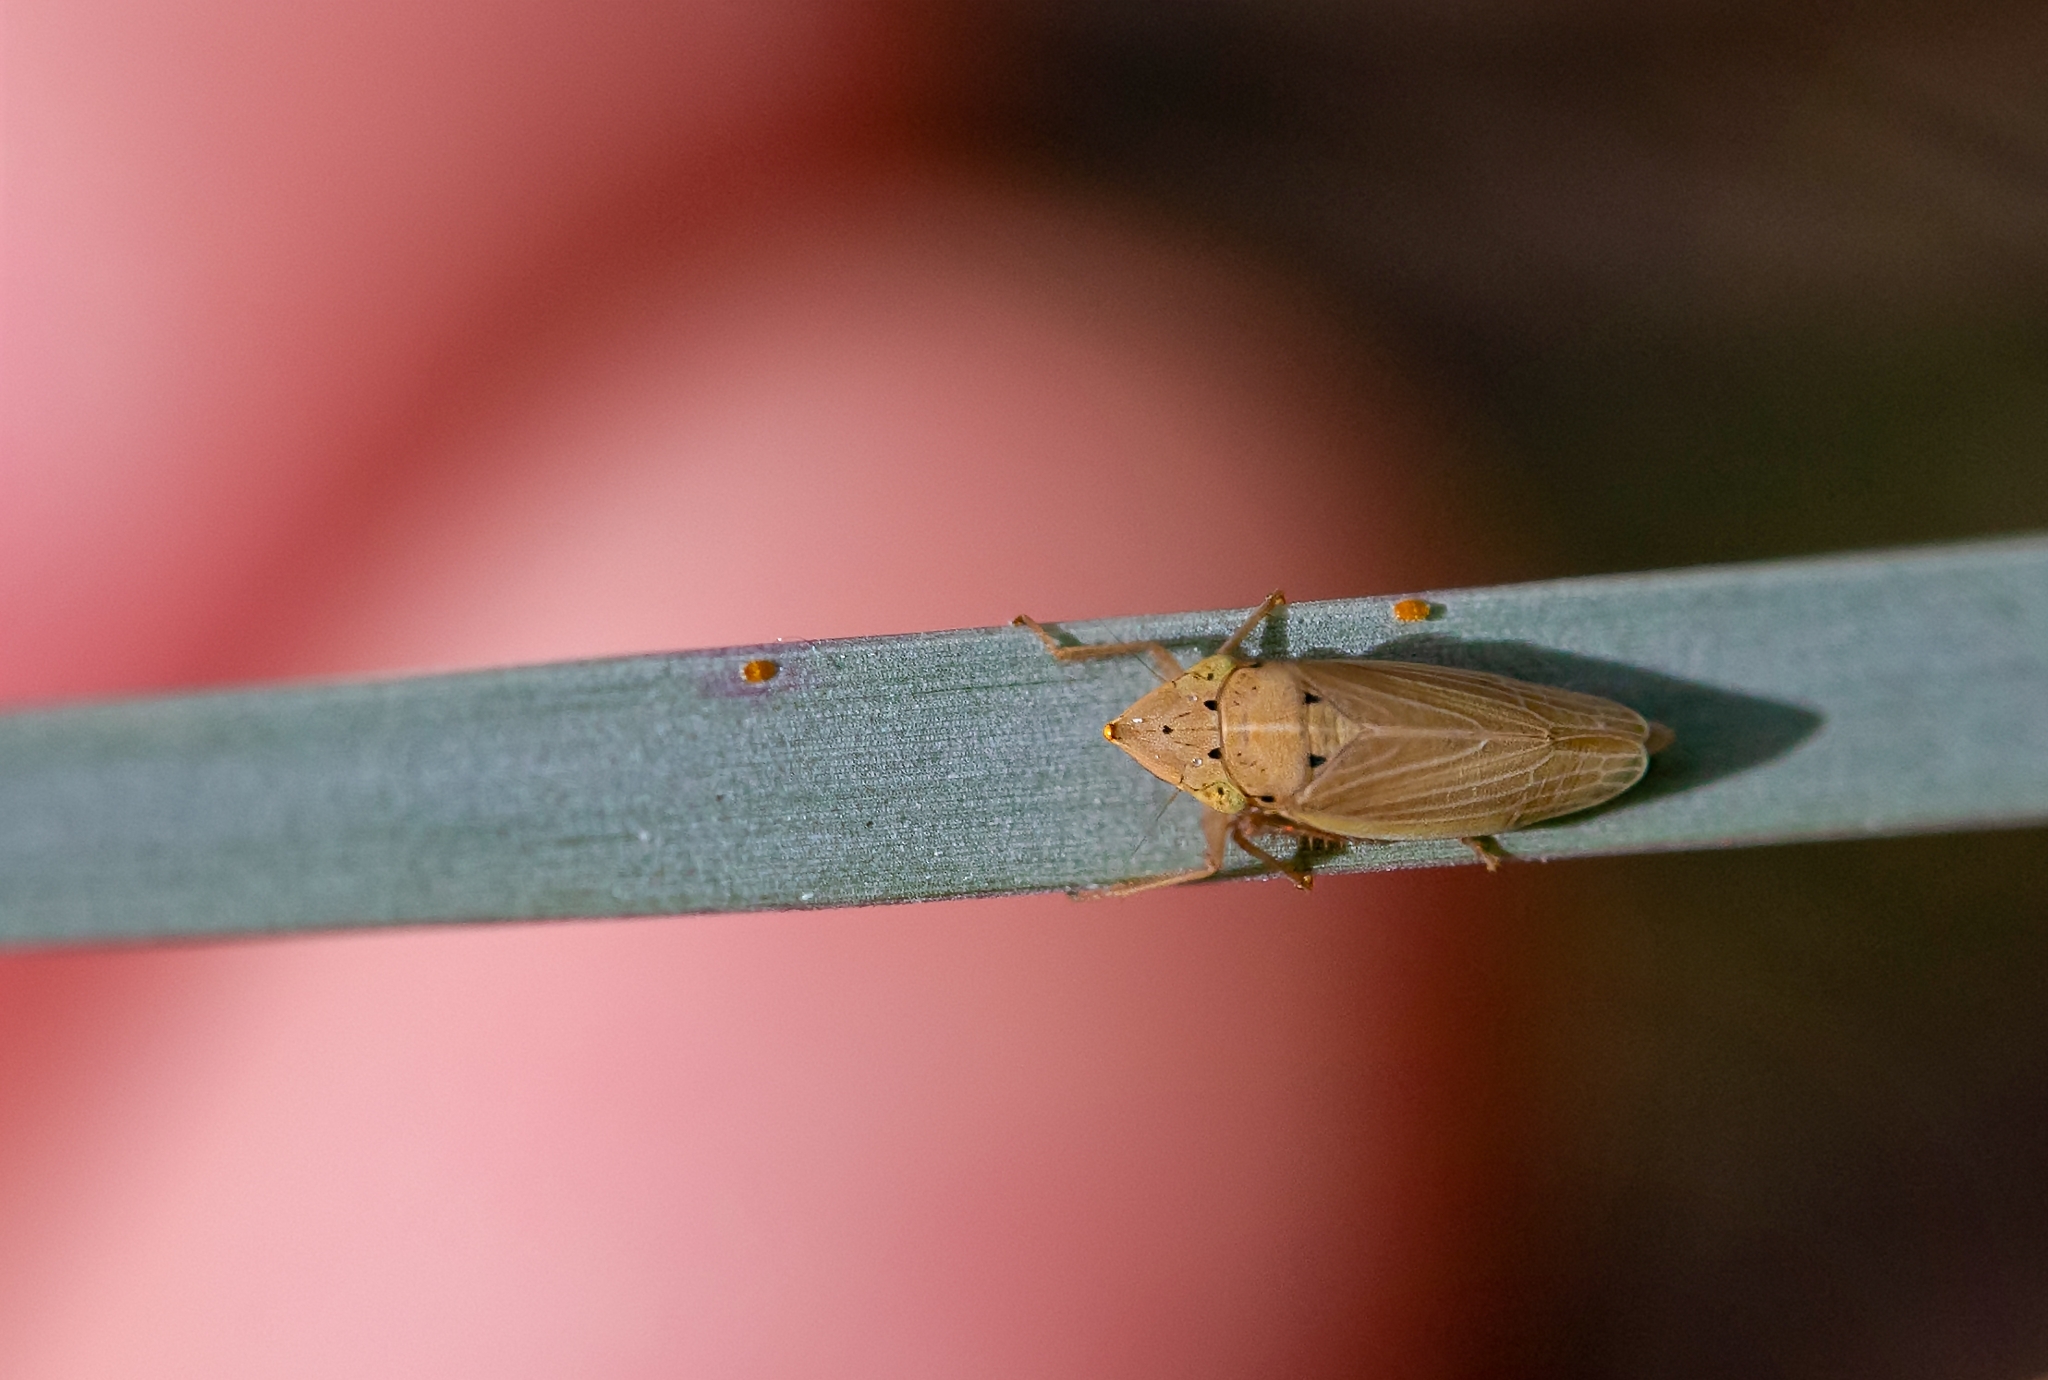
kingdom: Animalia
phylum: Arthropoda
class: Insecta
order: Hemiptera
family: Cicadellidae
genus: Draeculacephala
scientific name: Draeculacephala septemguttata
